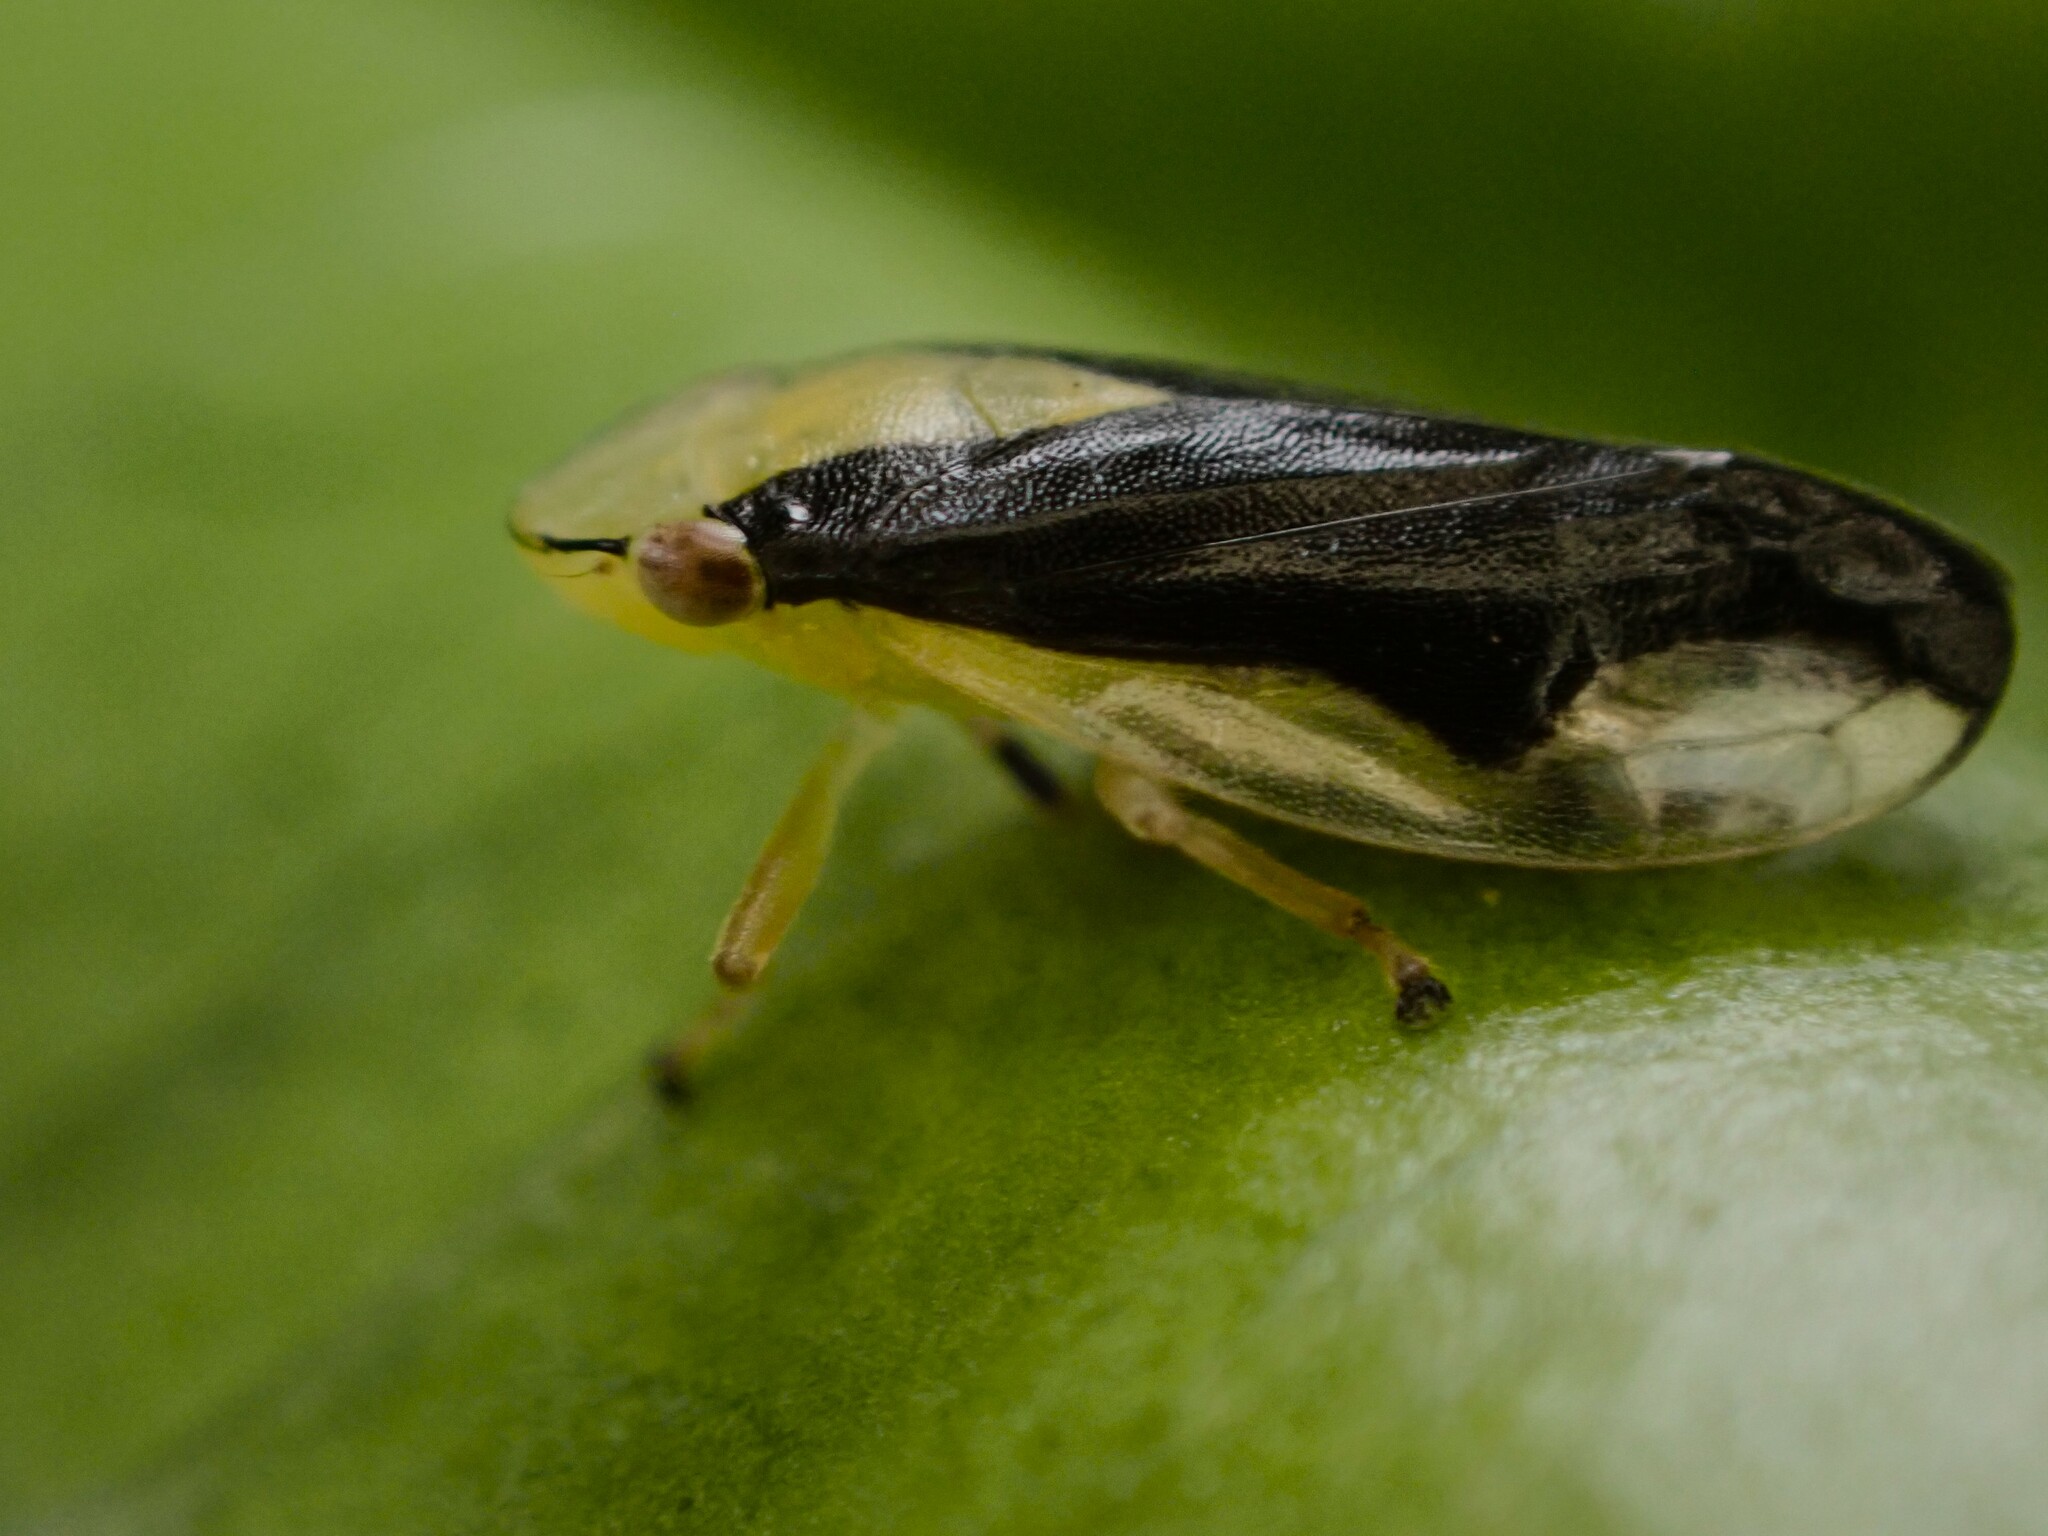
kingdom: Animalia
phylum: Arthropoda
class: Insecta
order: Hemiptera
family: Aphrophoridae
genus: Lallemandana
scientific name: Lallemandana rarotongae
